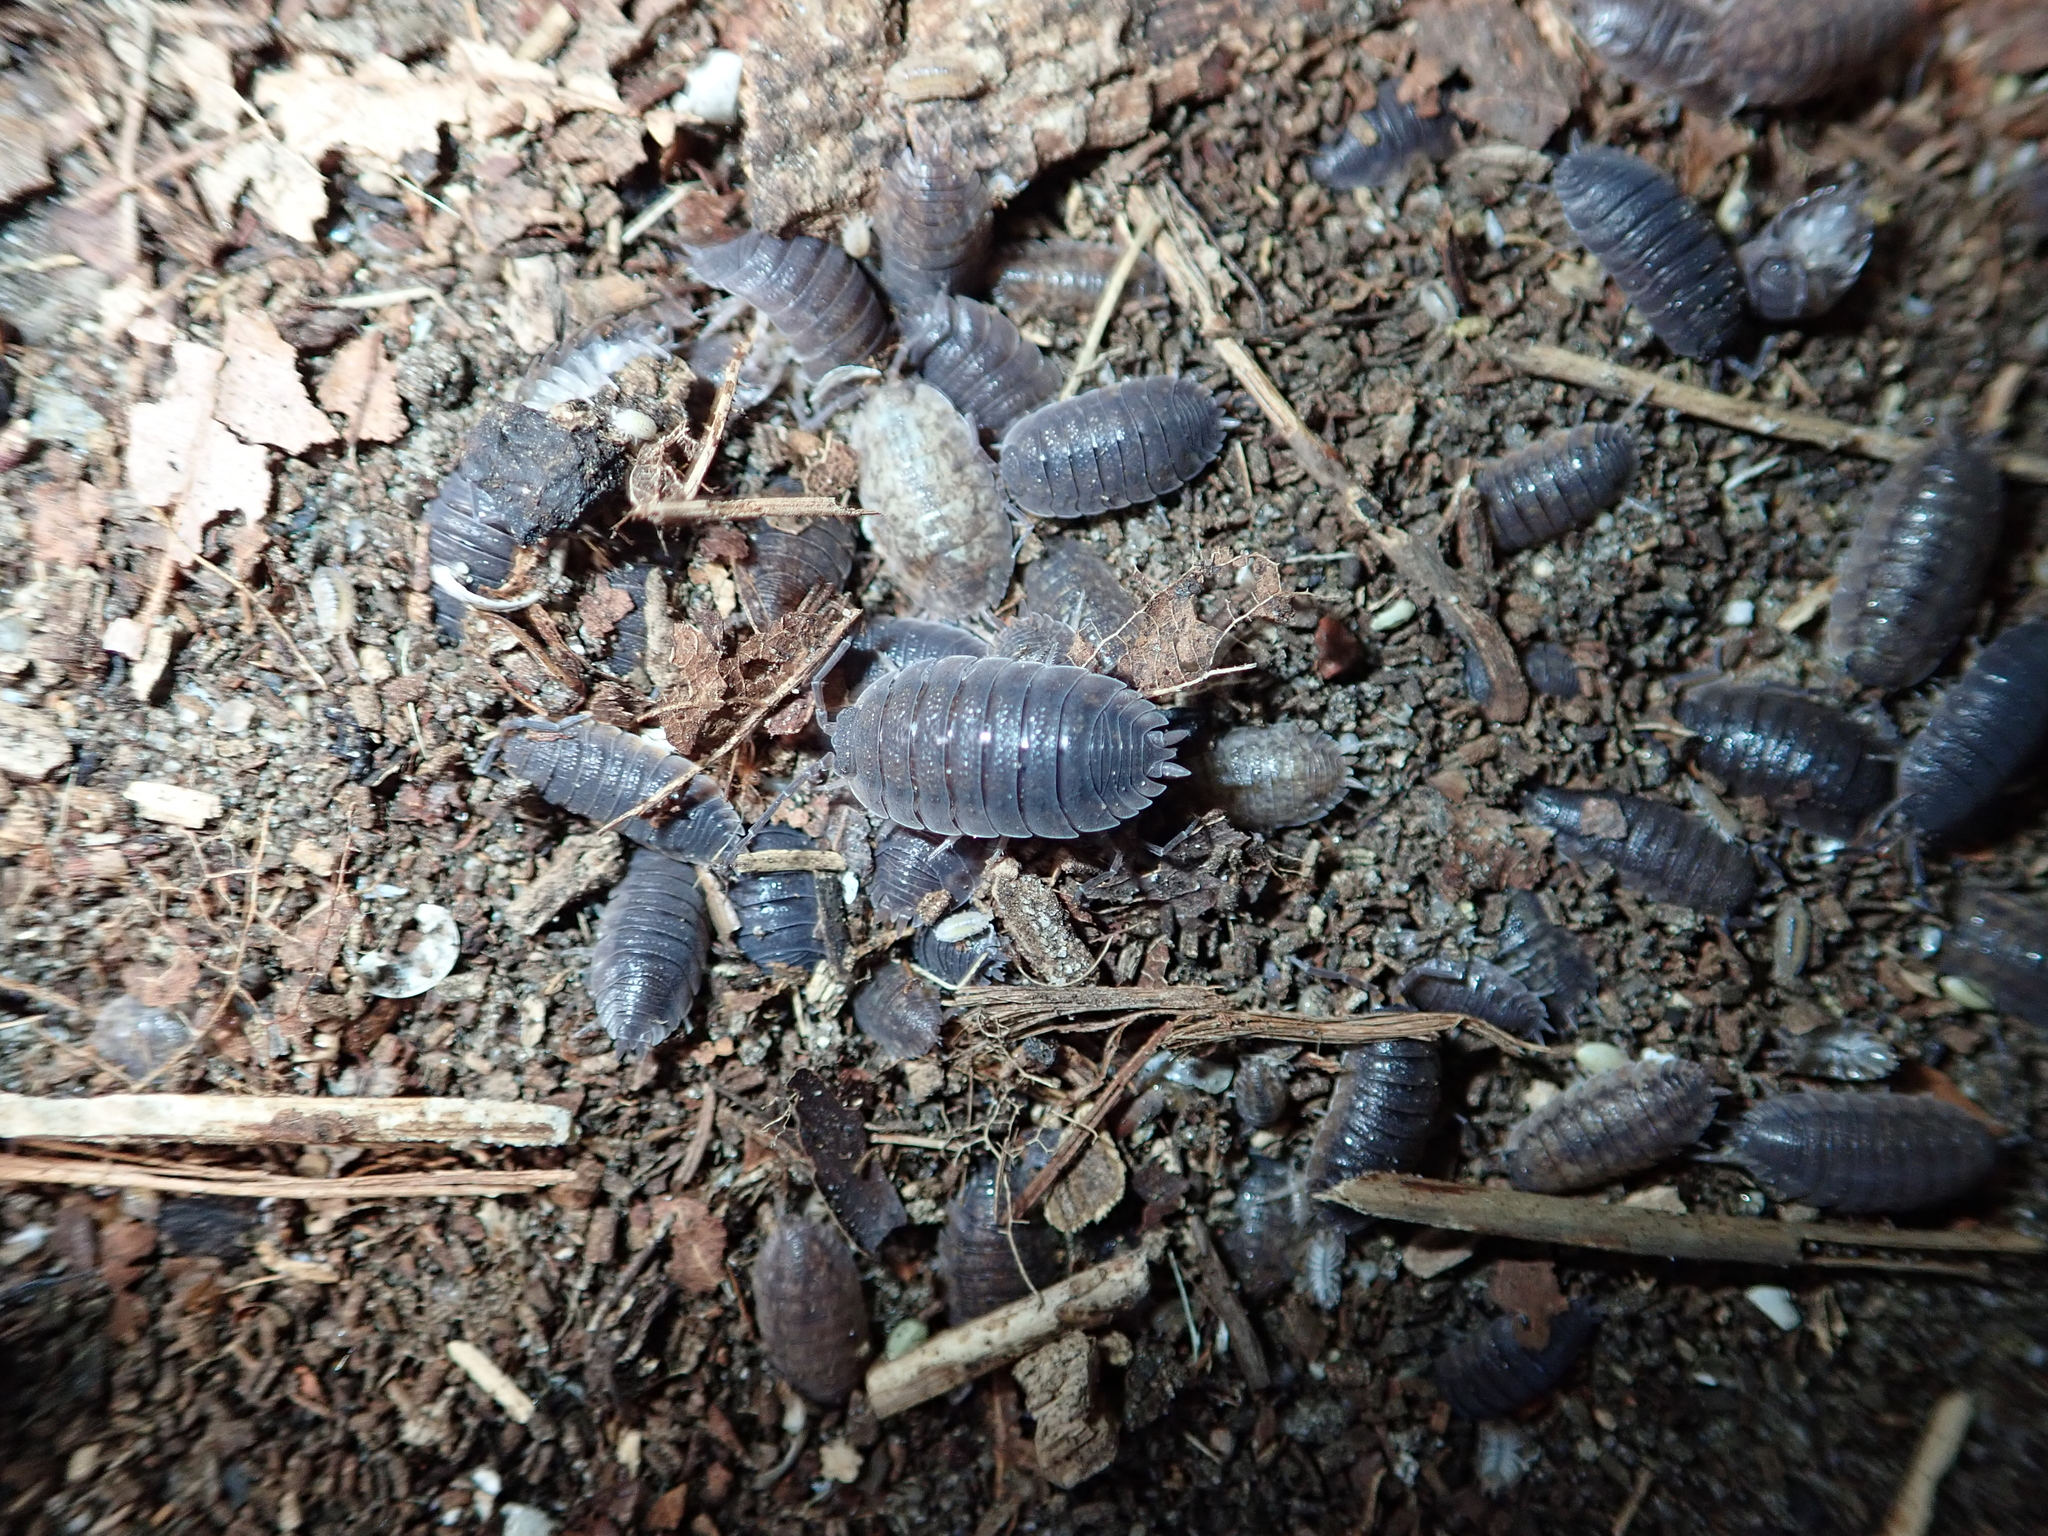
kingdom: Animalia
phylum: Arthropoda
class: Malacostraca
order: Isopoda
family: Porcellionidae
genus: Porcellio
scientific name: Porcellio scaber
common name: Common rough woodlouse
